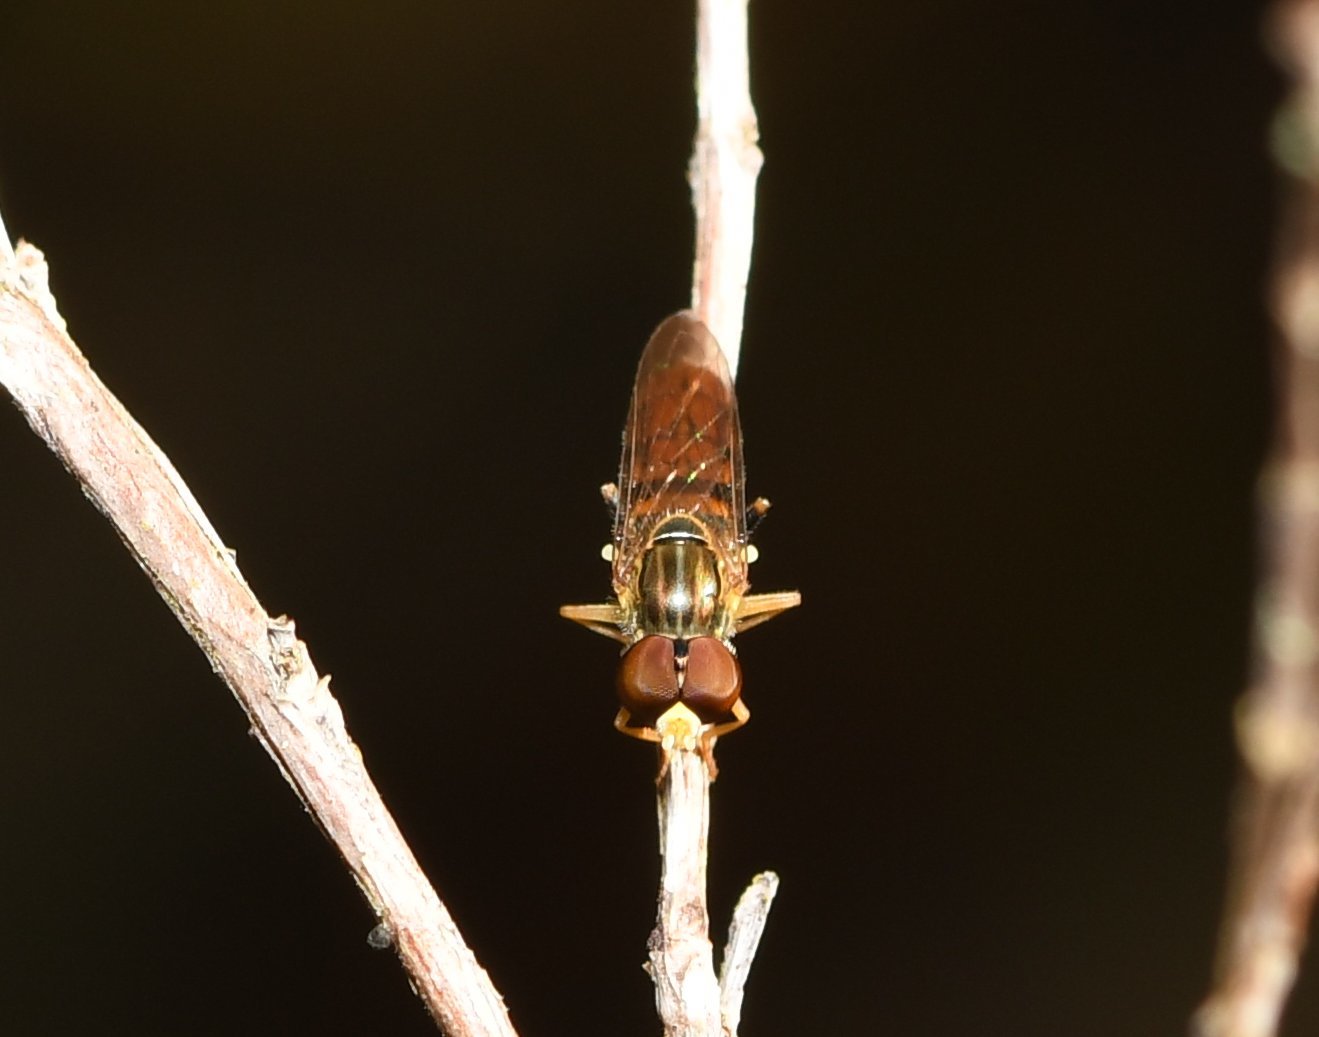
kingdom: Animalia
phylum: Arthropoda
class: Insecta
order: Diptera
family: Syrphidae
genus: Toxomerus
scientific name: Toxomerus boscii
